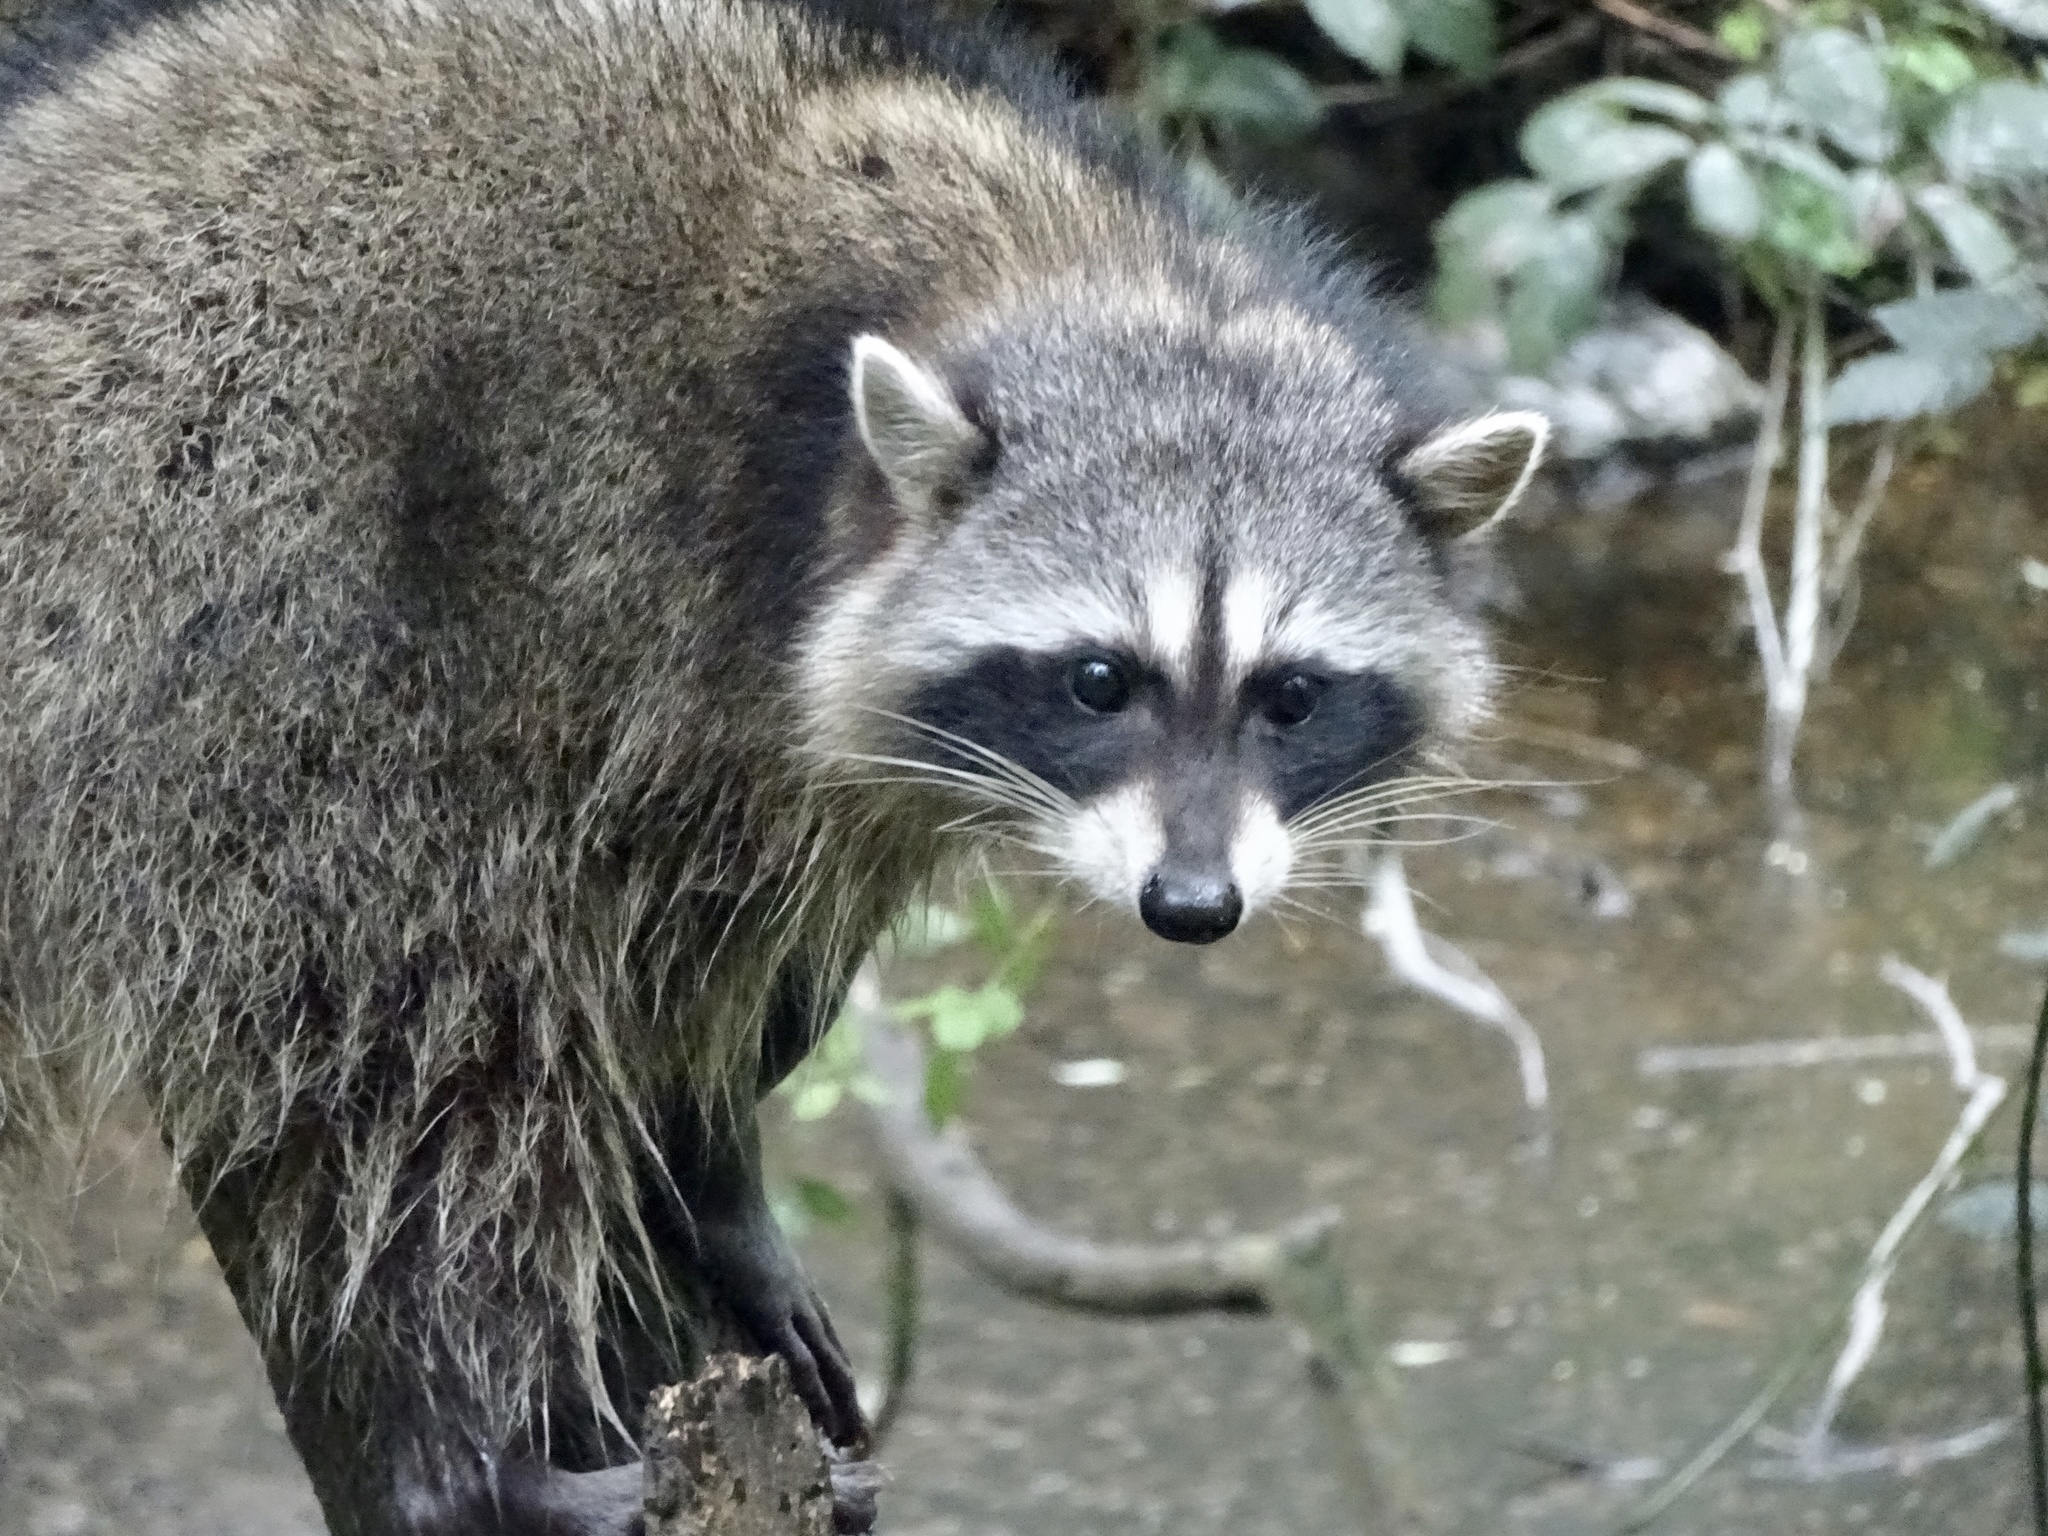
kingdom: Animalia
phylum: Chordata
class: Mammalia
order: Carnivora
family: Procyonidae
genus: Procyon
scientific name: Procyon lotor
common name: Raccoon
